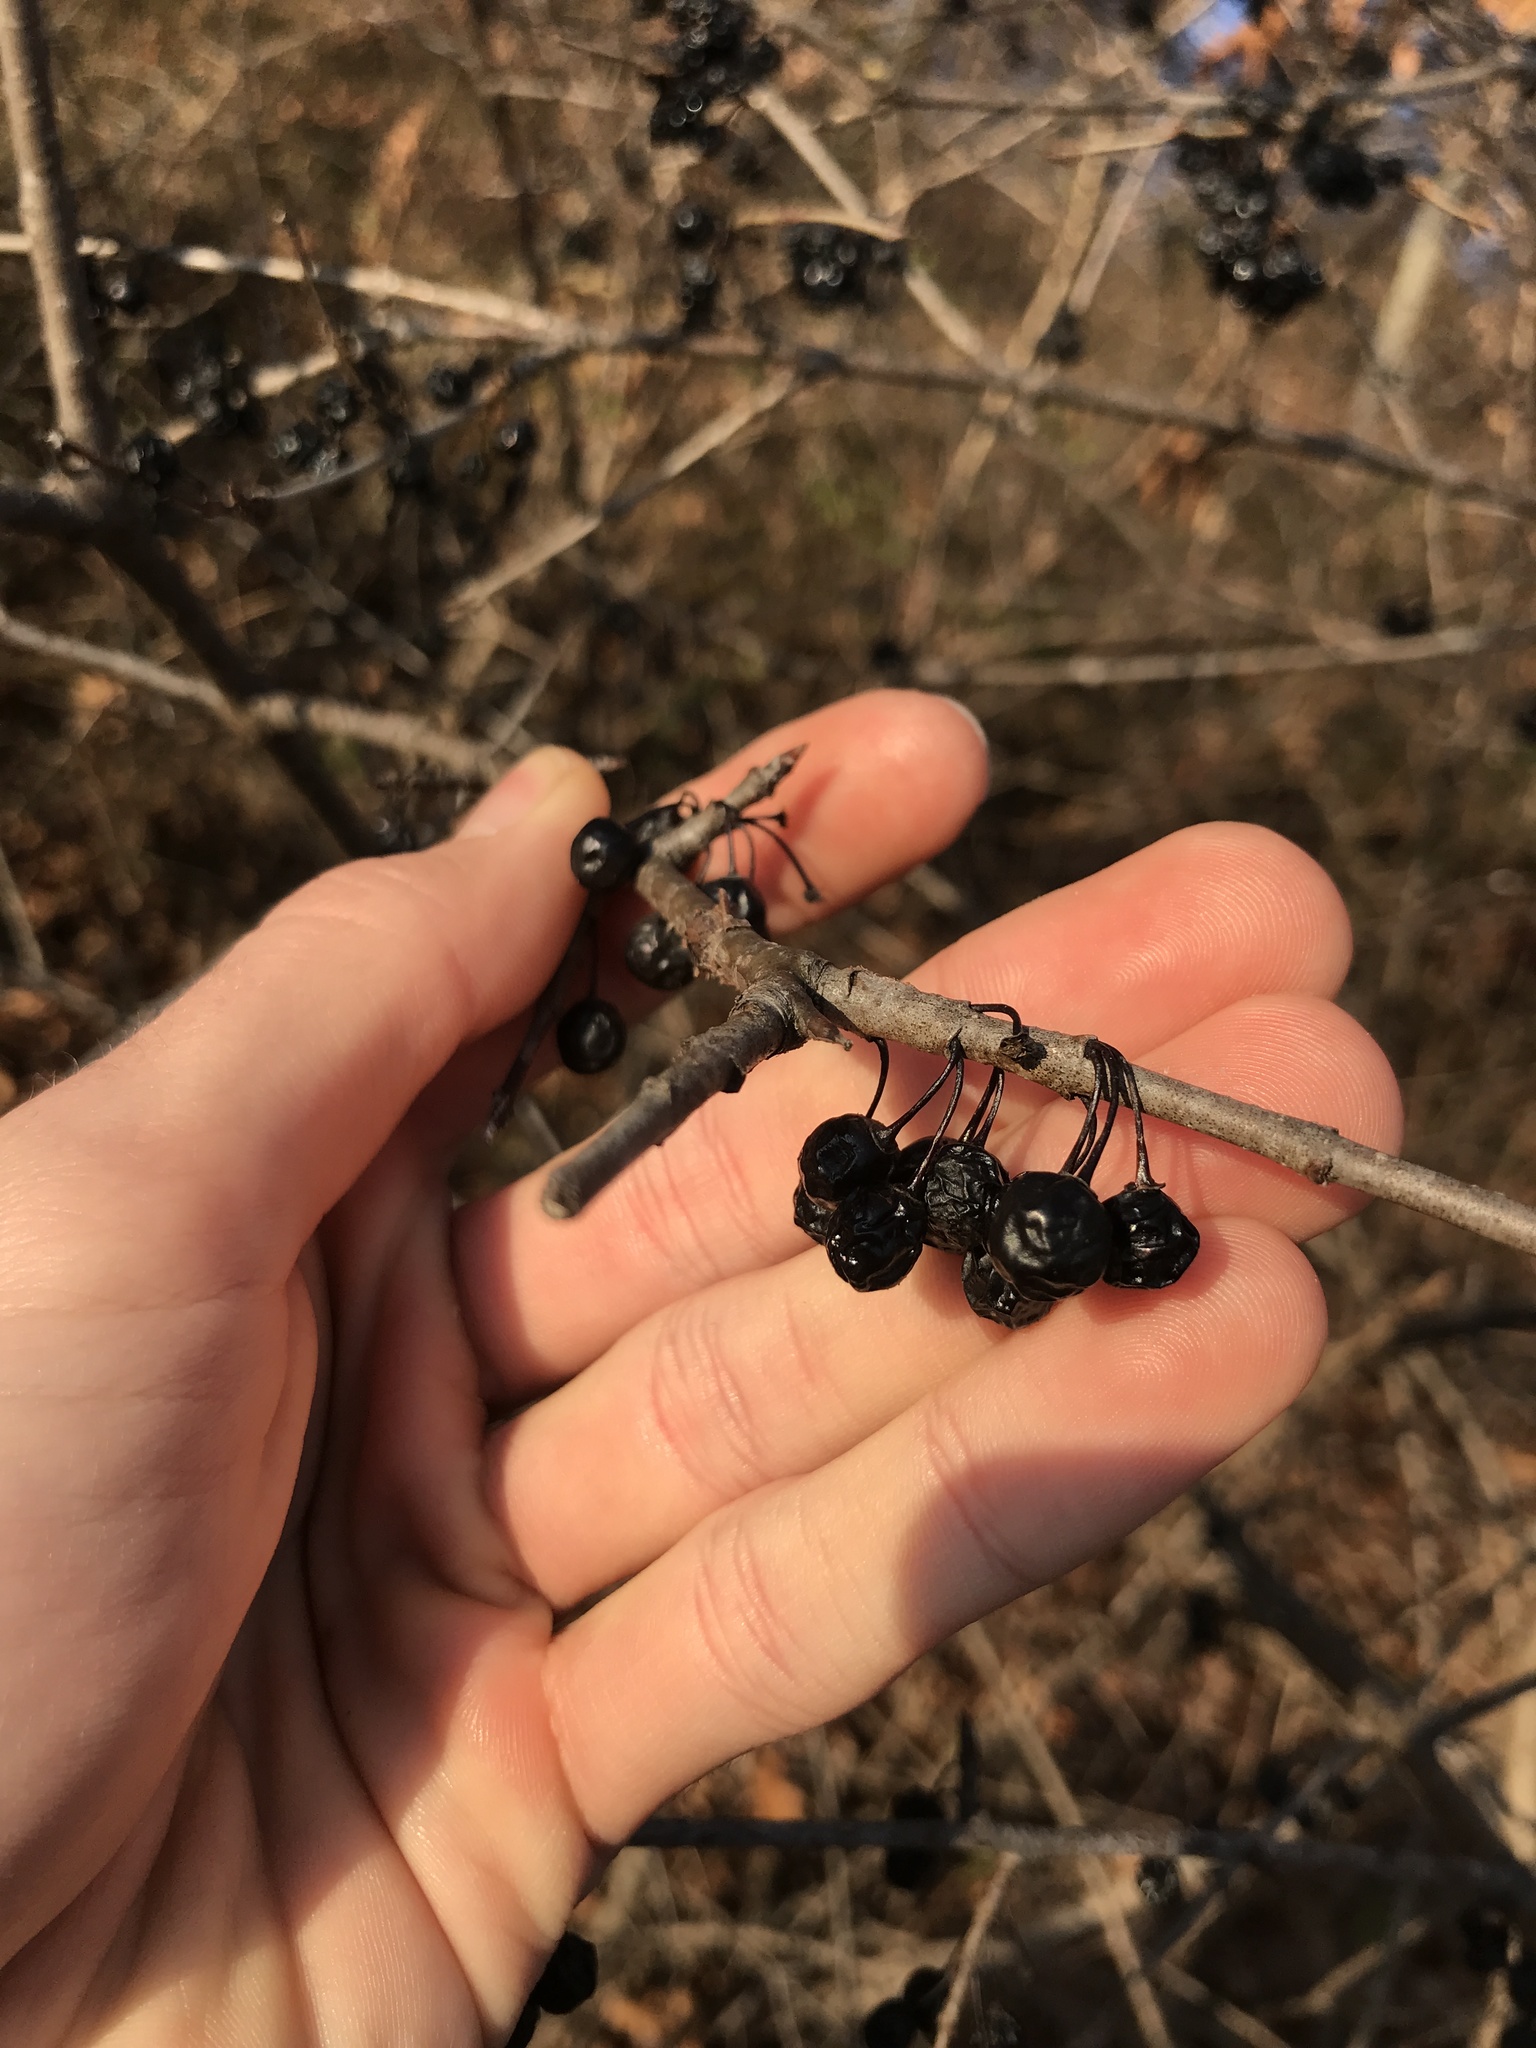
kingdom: Plantae
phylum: Tracheophyta
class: Magnoliopsida
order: Rosales
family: Rhamnaceae
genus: Rhamnus
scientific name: Rhamnus cathartica
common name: Common buckthorn
